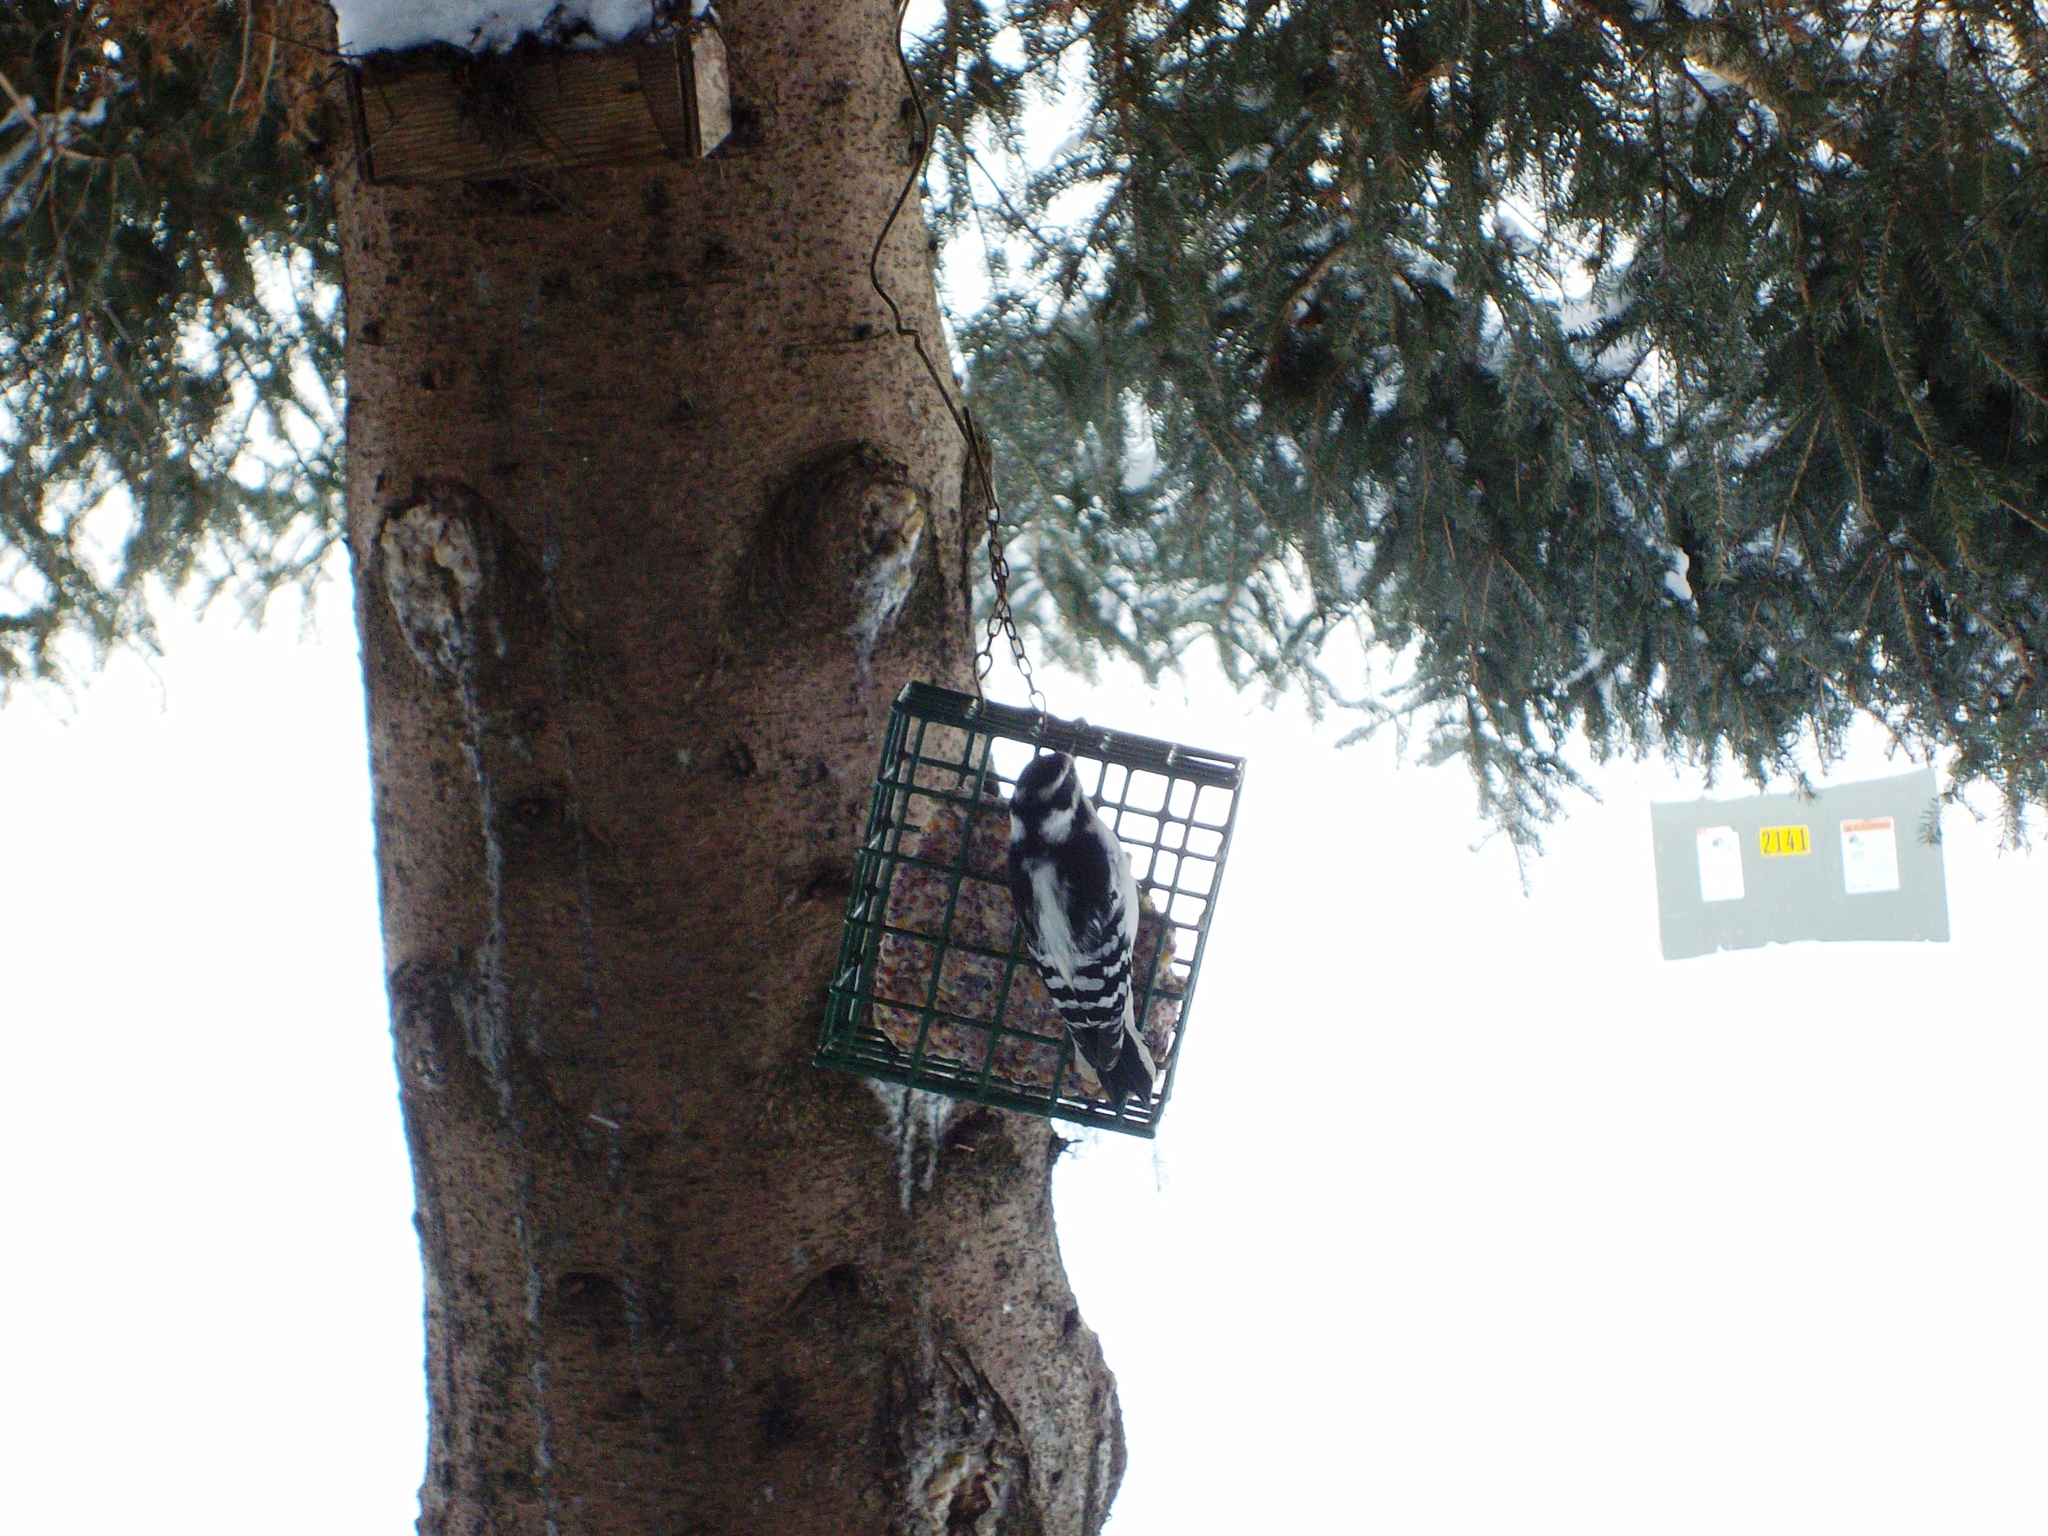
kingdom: Animalia
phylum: Chordata
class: Aves
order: Piciformes
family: Picidae
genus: Dryobates
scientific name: Dryobates pubescens
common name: Downy woodpecker
